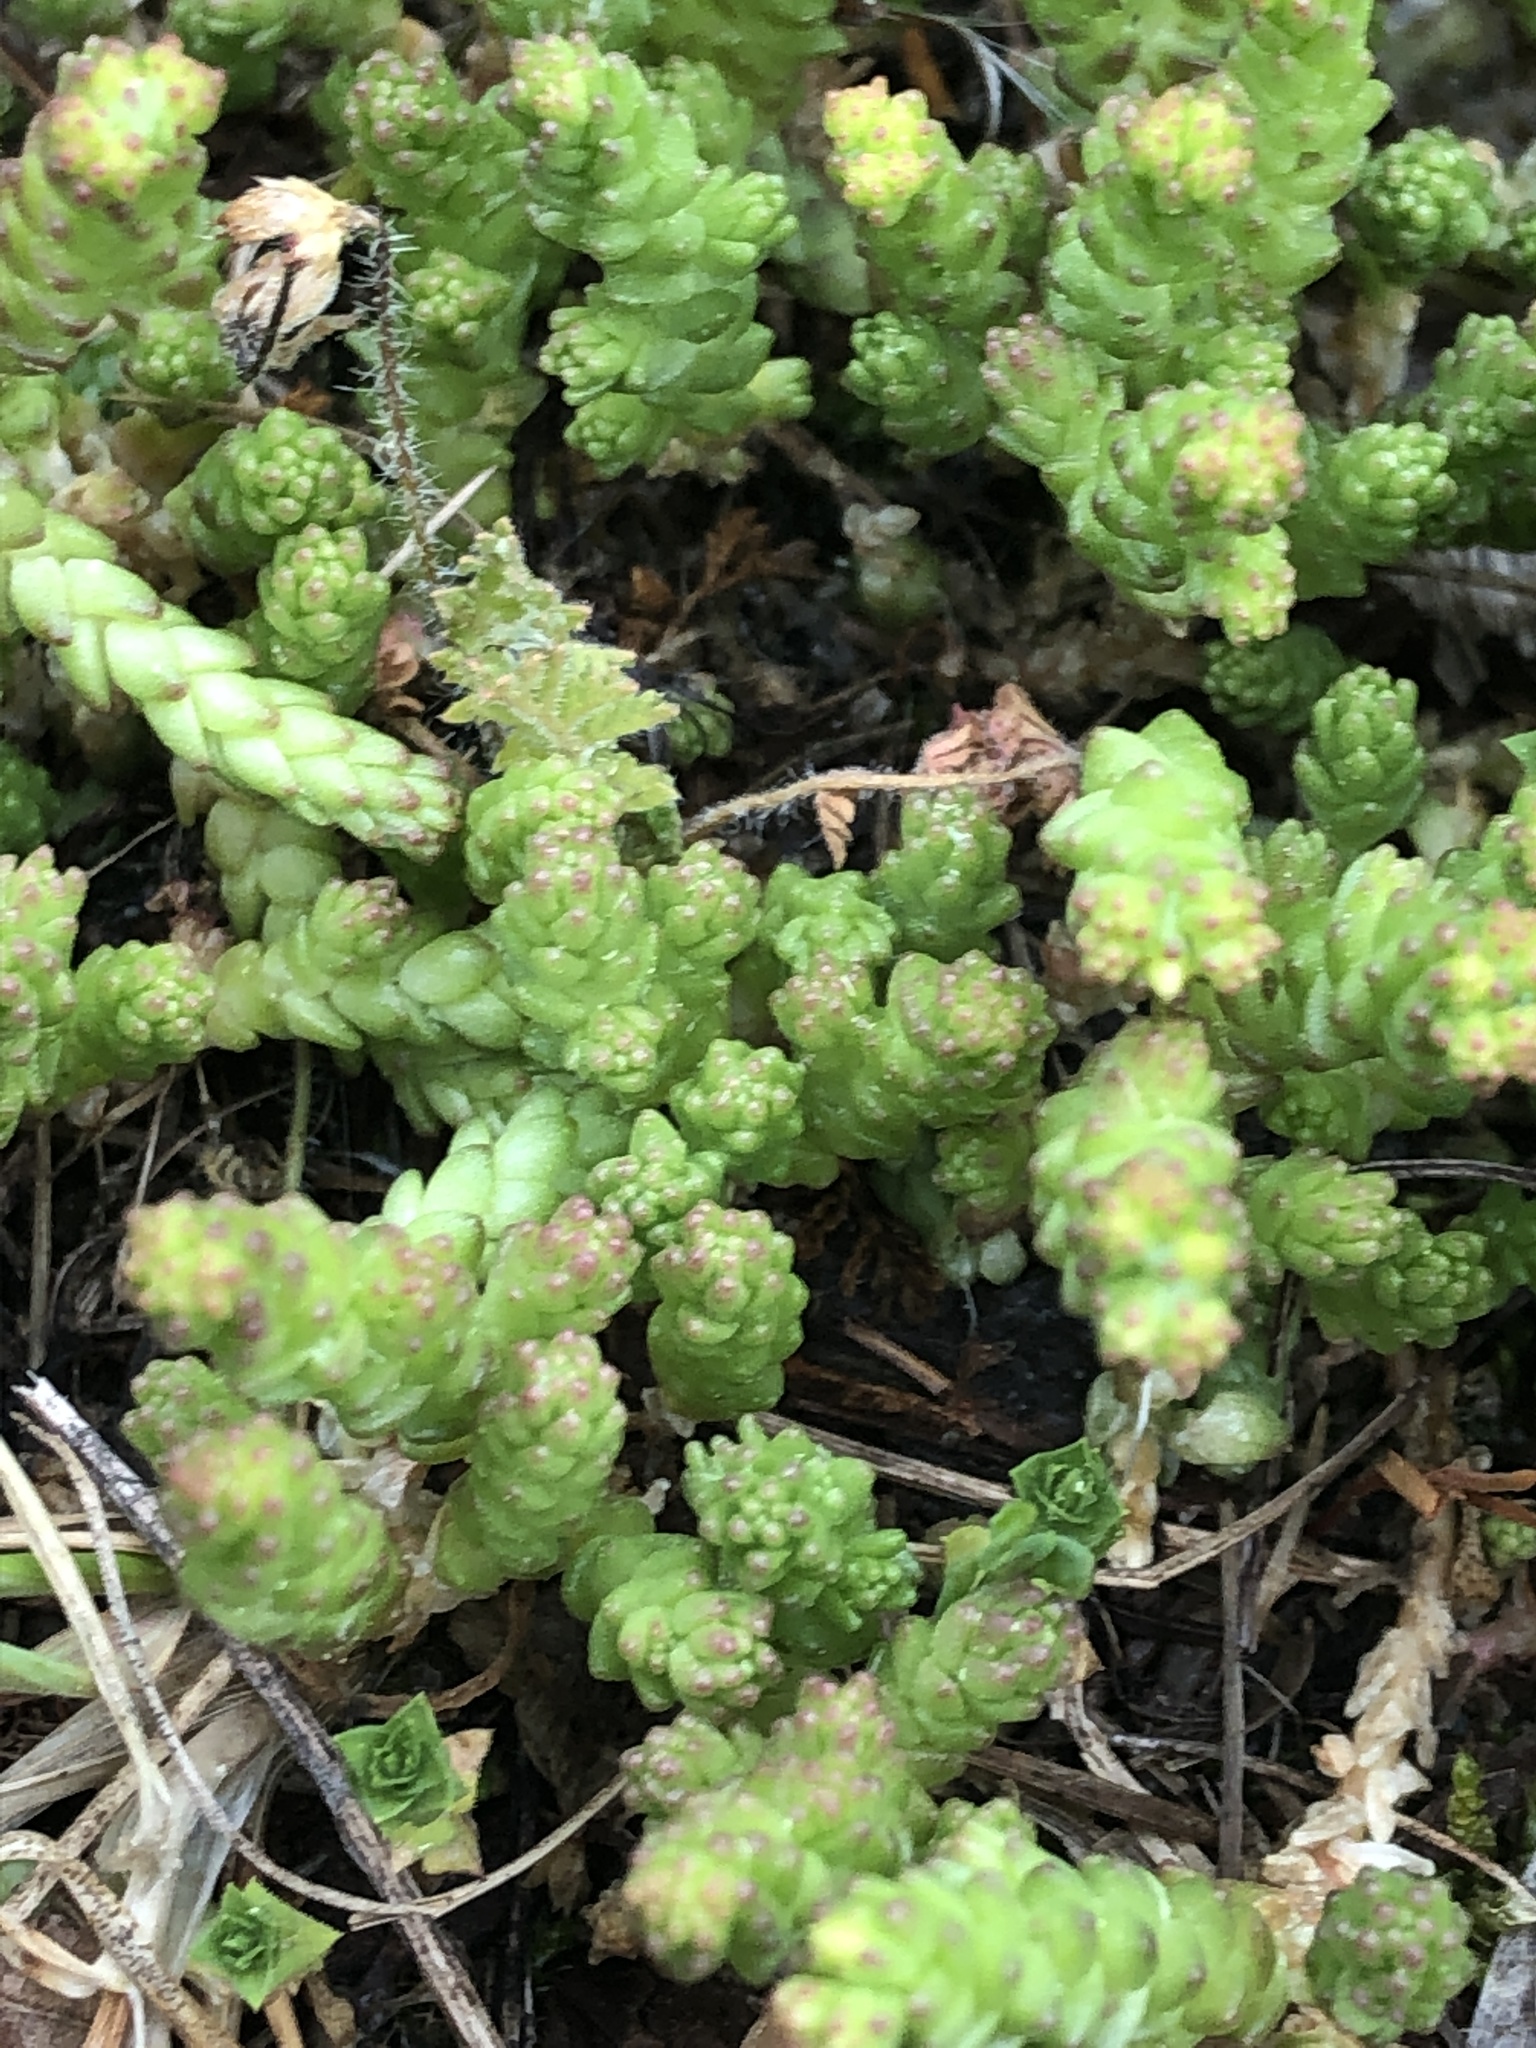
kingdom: Plantae
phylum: Tracheophyta
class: Magnoliopsida
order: Saxifragales
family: Crassulaceae
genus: Sedum
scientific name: Sedum acre
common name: Biting stonecrop
